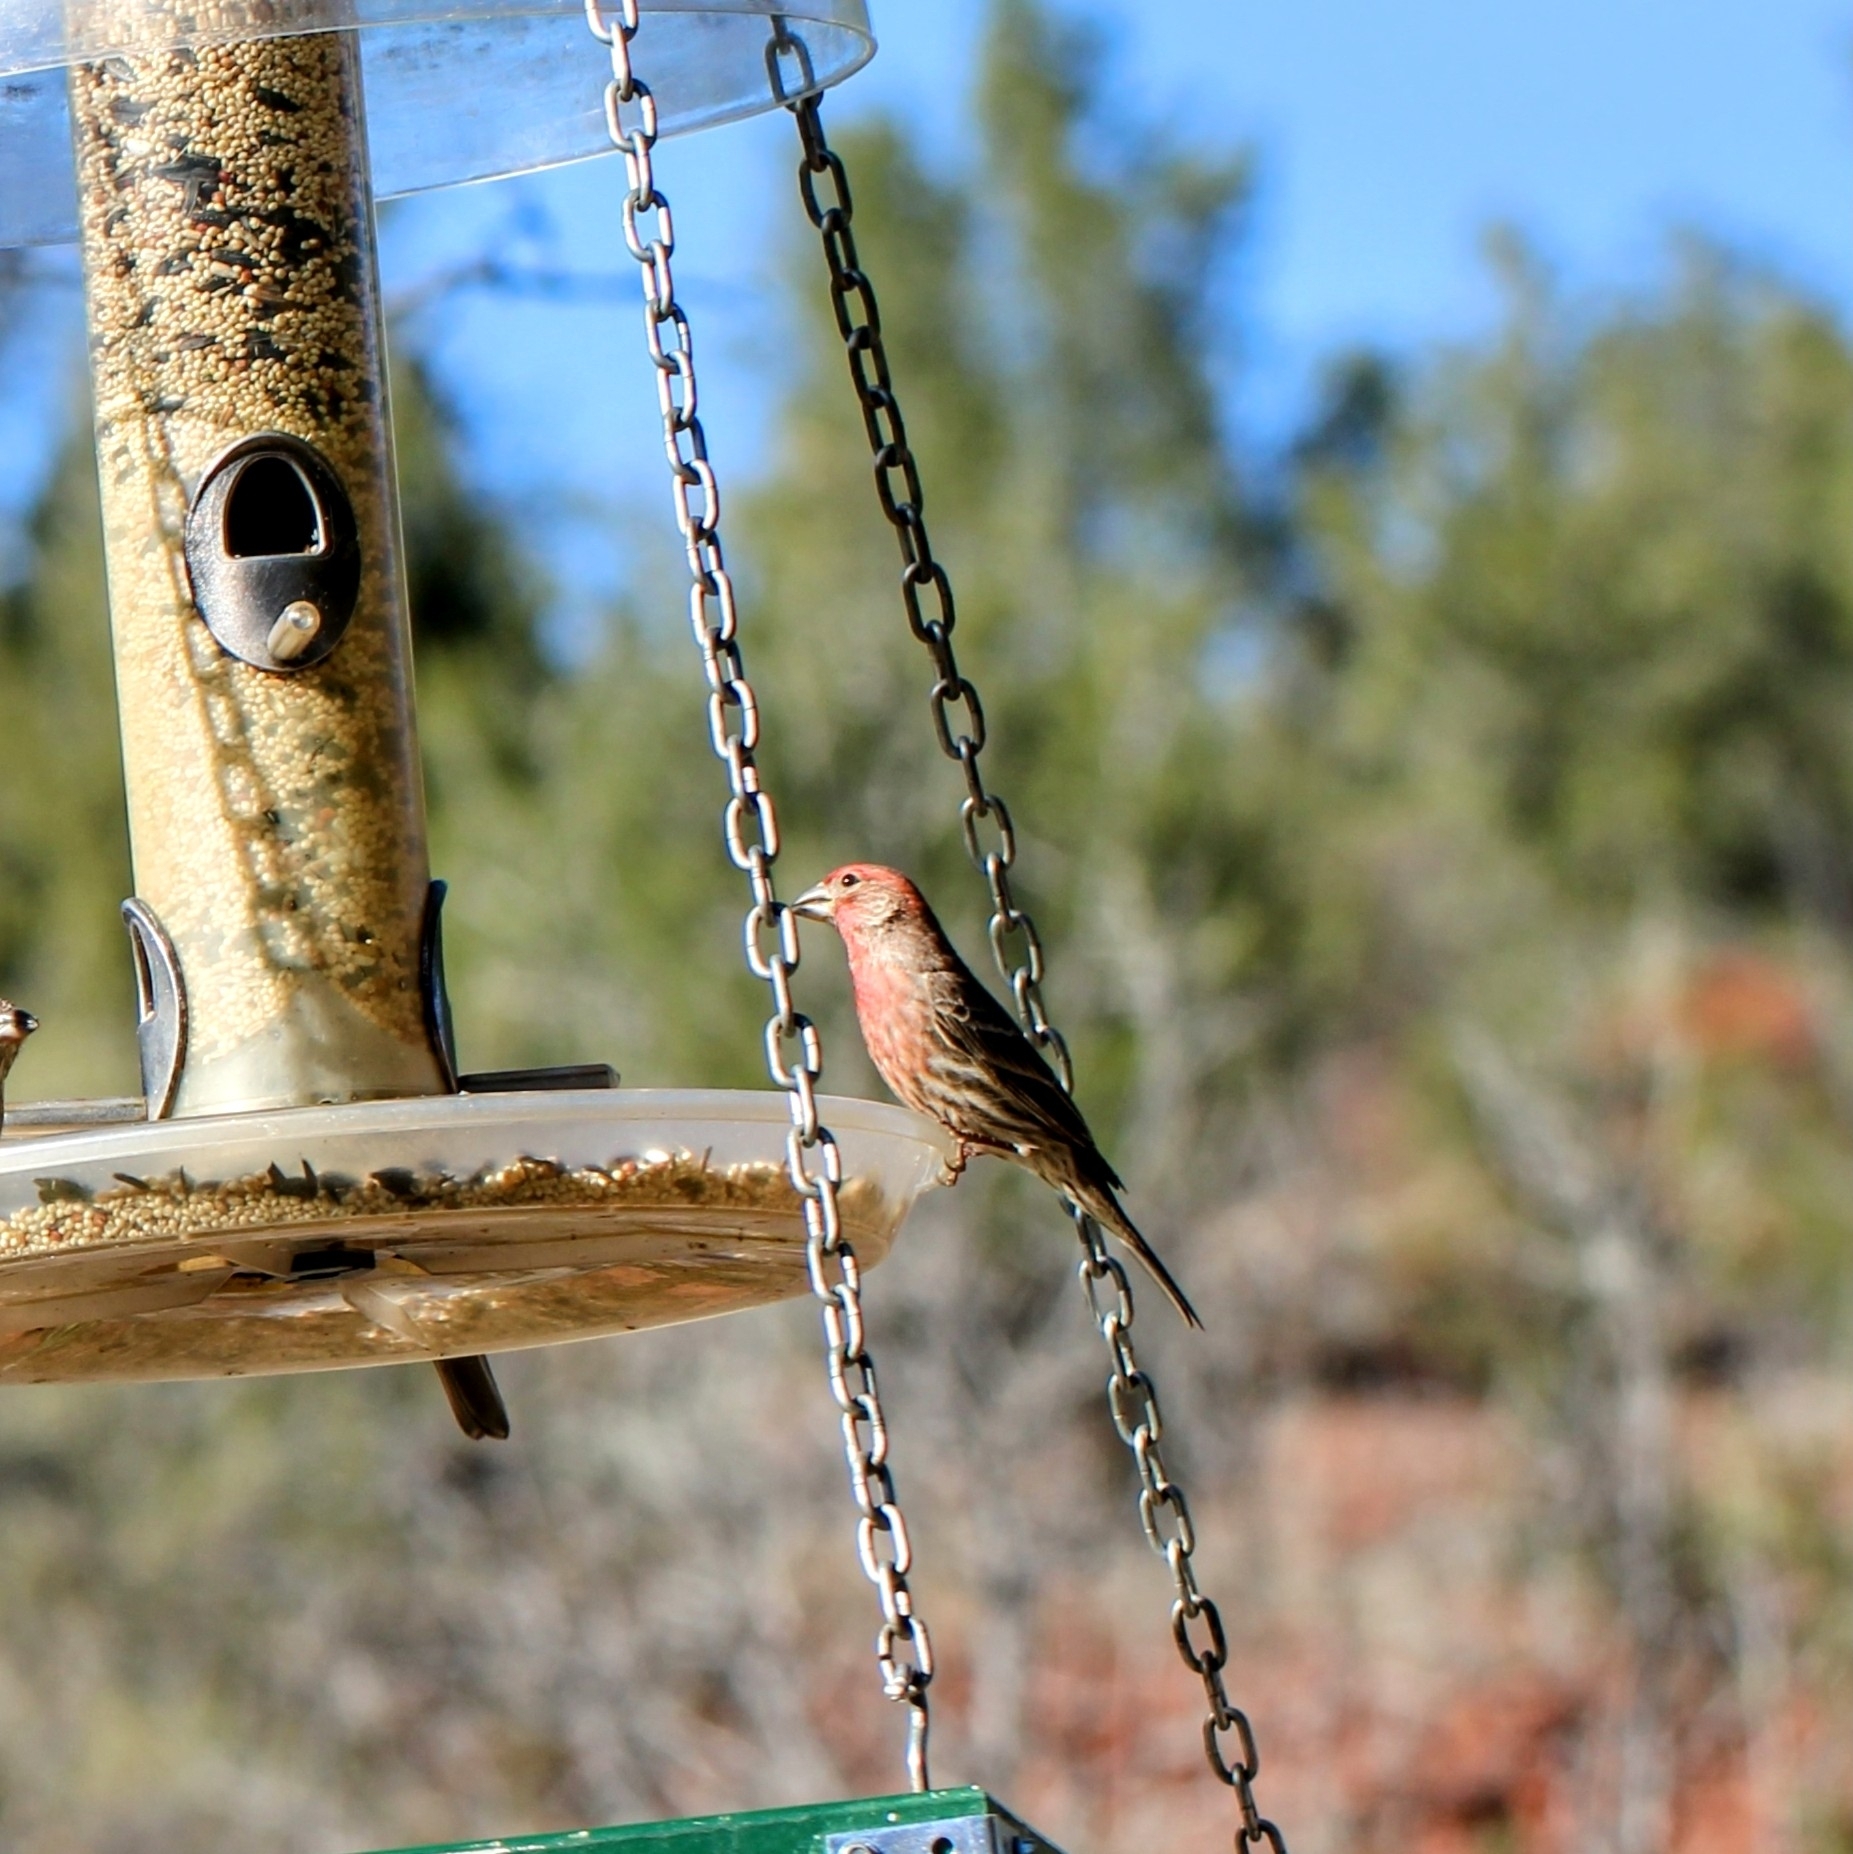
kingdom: Animalia
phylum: Chordata
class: Aves
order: Passeriformes
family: Fringillidae
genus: Haemorhous
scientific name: Haemorhous mexicanus
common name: House finch
